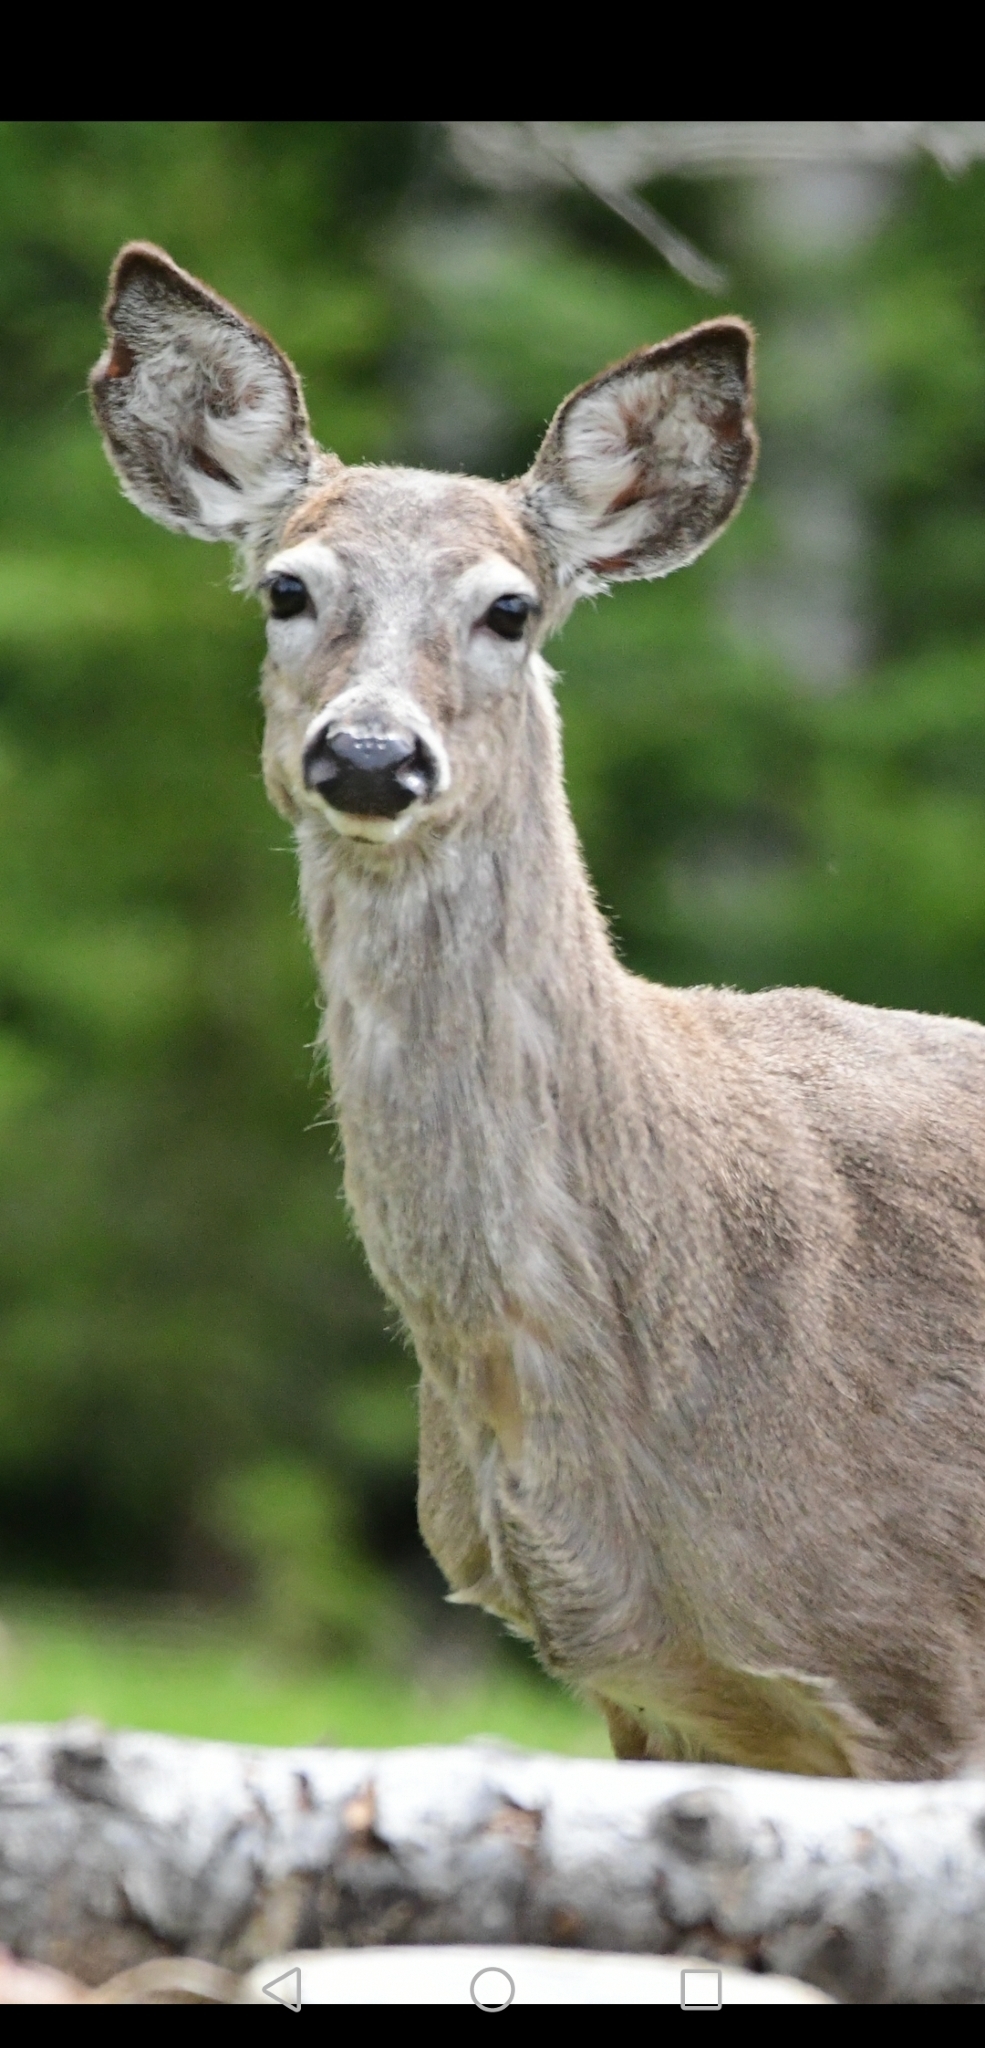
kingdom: Animalia
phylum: Chordata
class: Mammalia
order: Artiodactyla
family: Cervidae
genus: Odocoileus
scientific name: Odocoileus virginianus
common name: White-tailed deer
